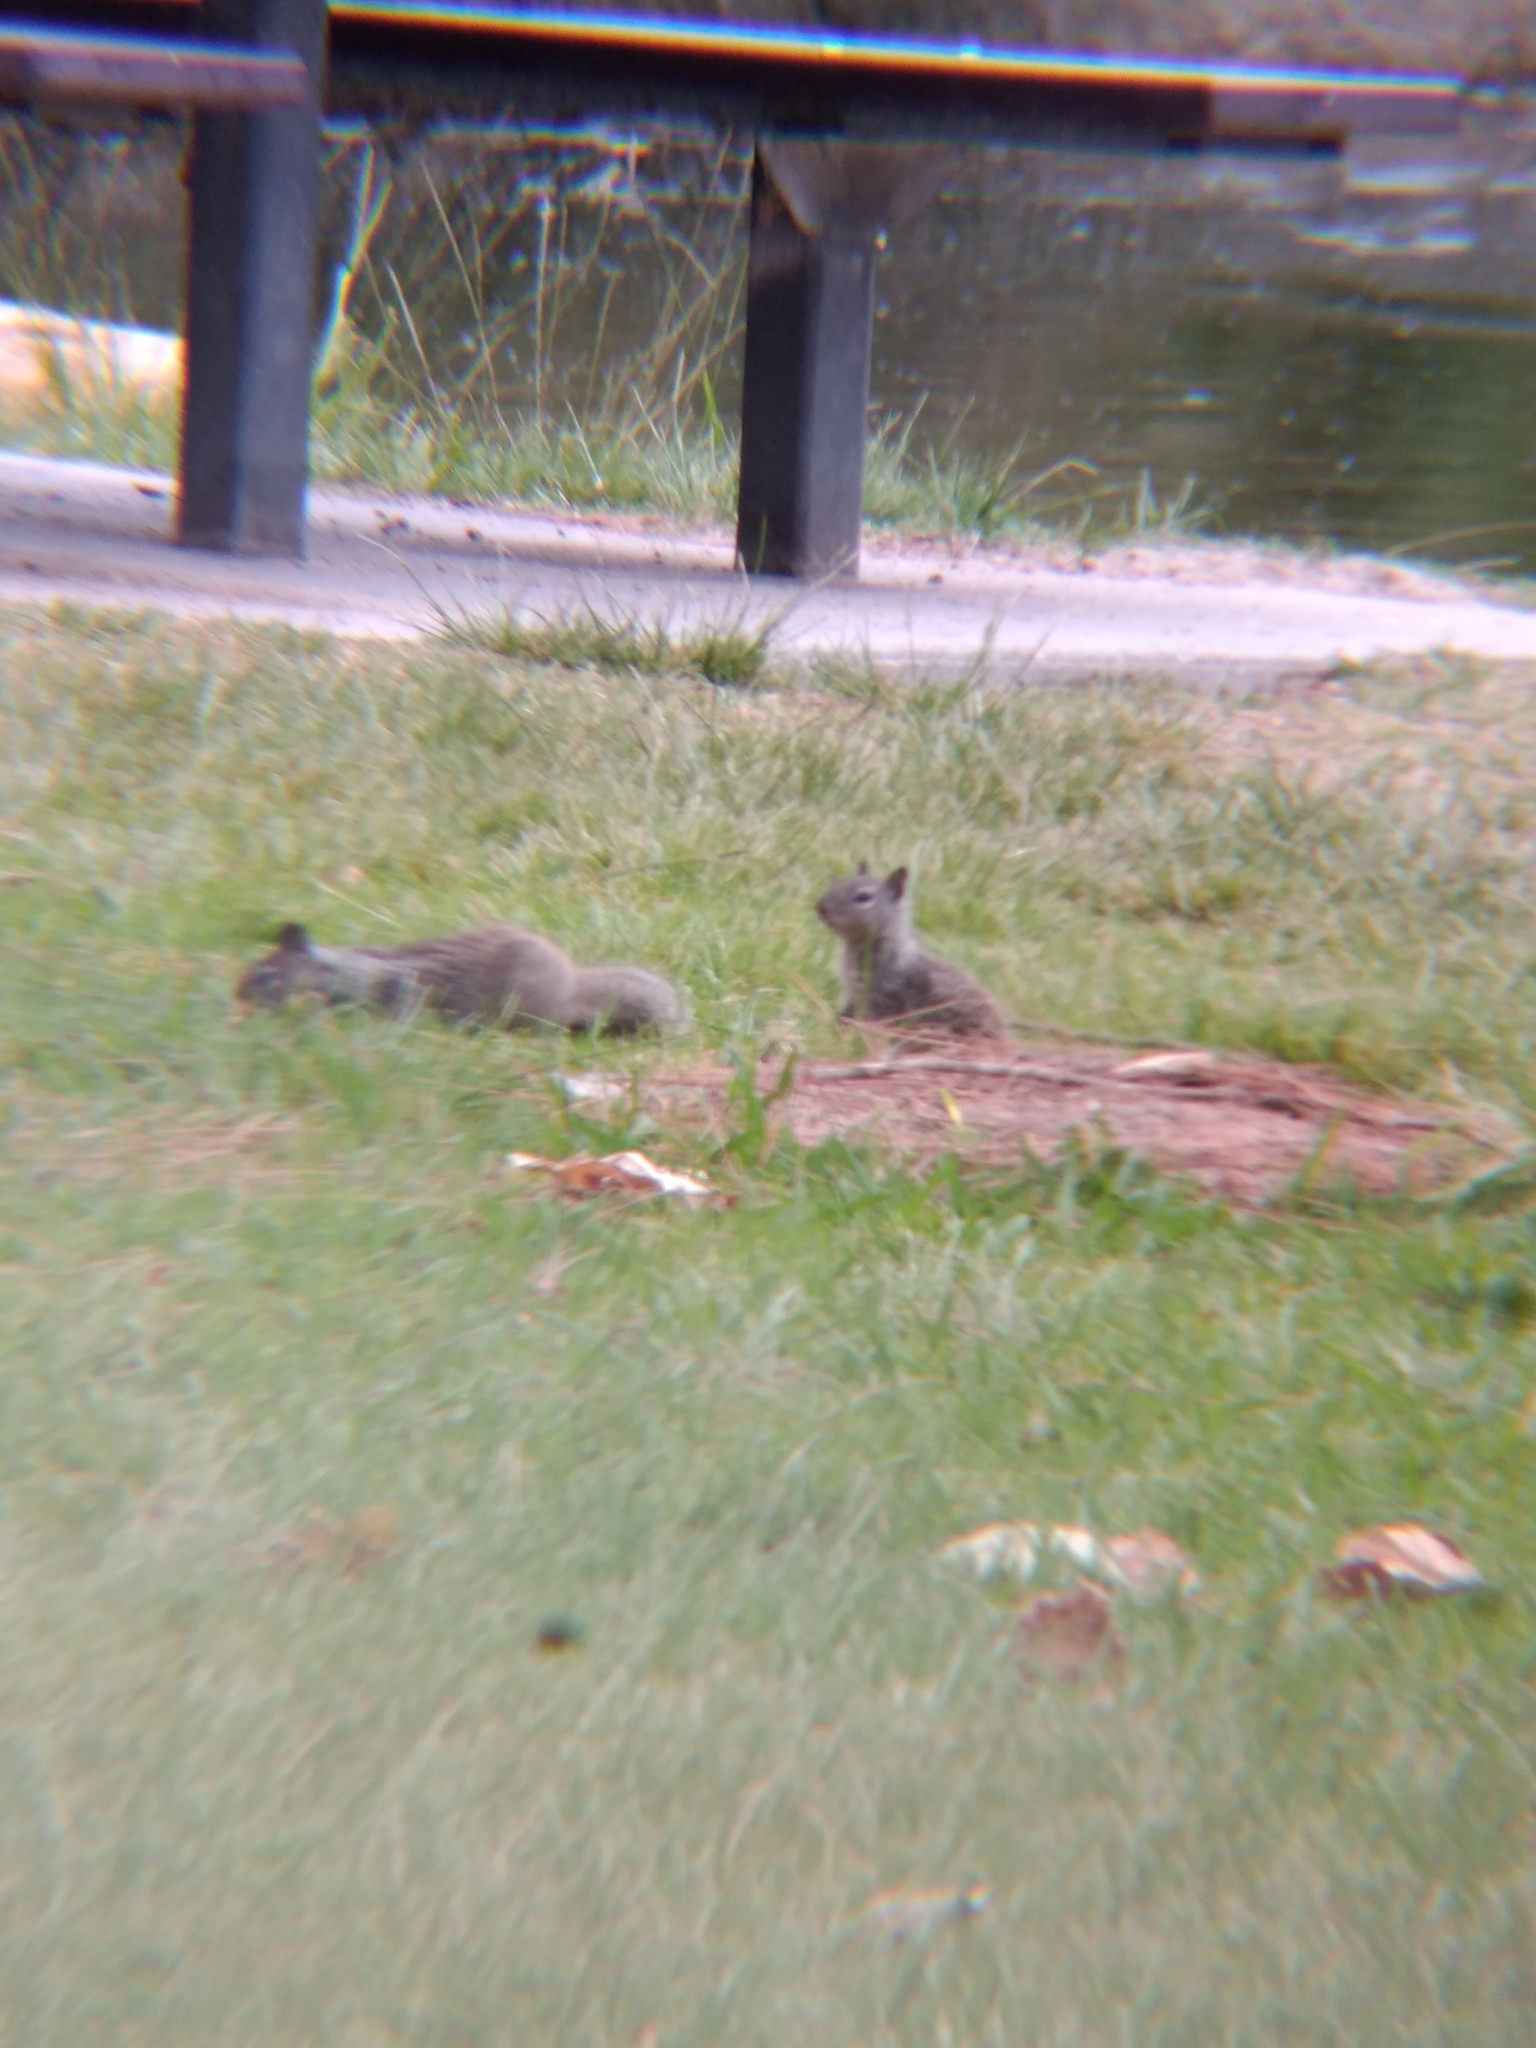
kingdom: Animalia
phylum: Chordata
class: Mammalia
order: Rodentia
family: Sciuridae
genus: Otospermophilus
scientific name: Otospermophilus beecheyi
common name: California ground squirrel
